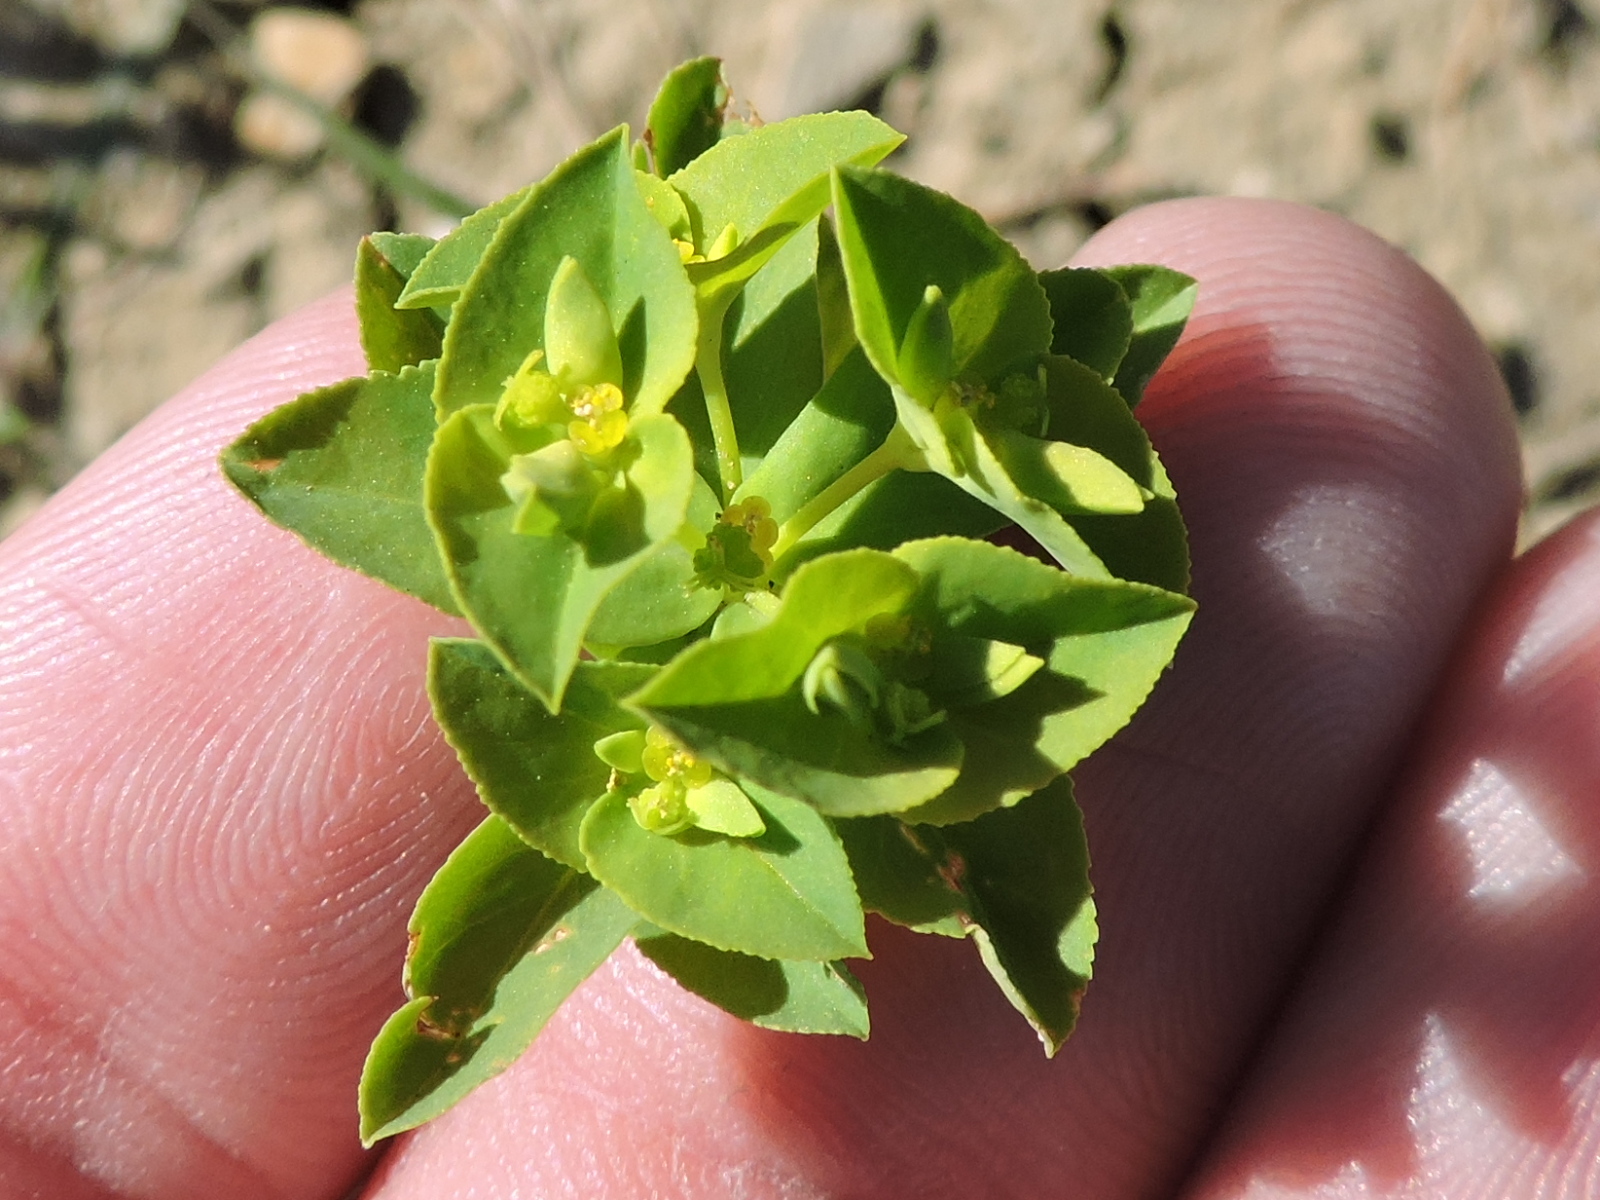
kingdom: Plantae
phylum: Tracheophyta
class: Magnoliopsida
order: Malpighiales
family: Euphorbiaceae
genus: Euphorbia
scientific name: Euphorbia spathulata
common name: Blunt spurge
